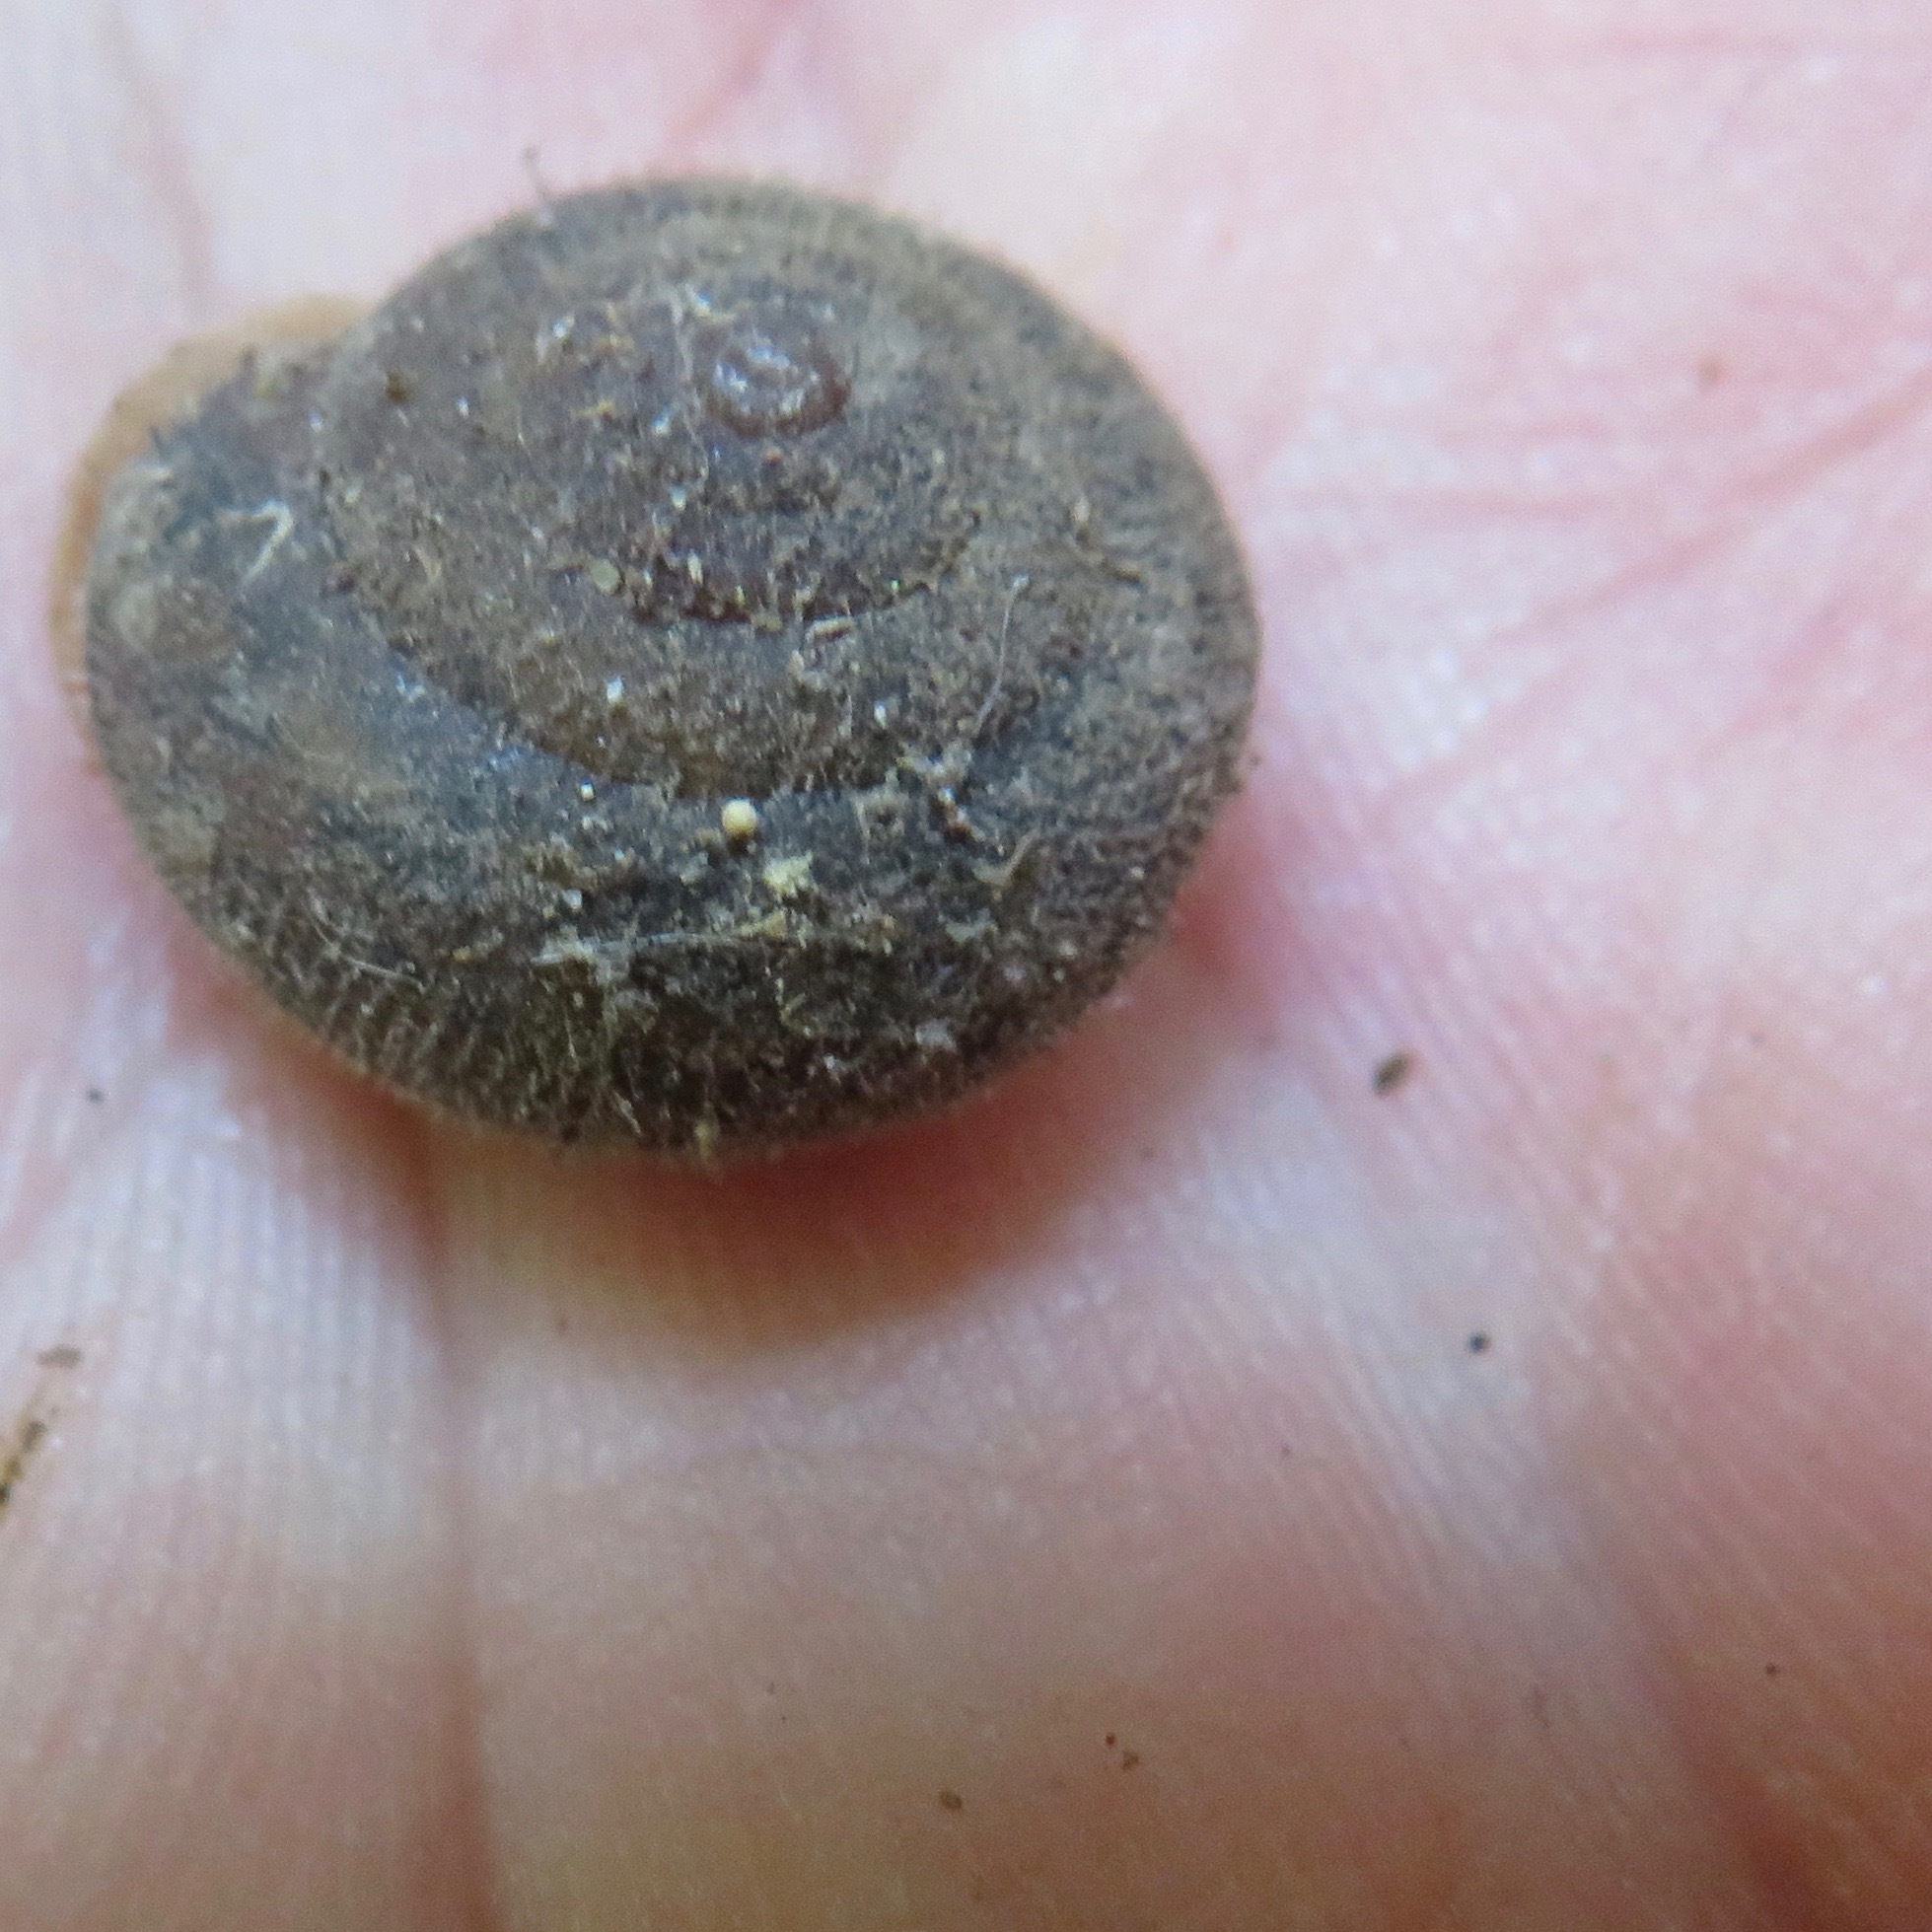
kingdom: Animalia
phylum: Mollusca
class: Gastropoda
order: Stylommatophora
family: Polygyridae
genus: Vespericola
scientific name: Vespericola
